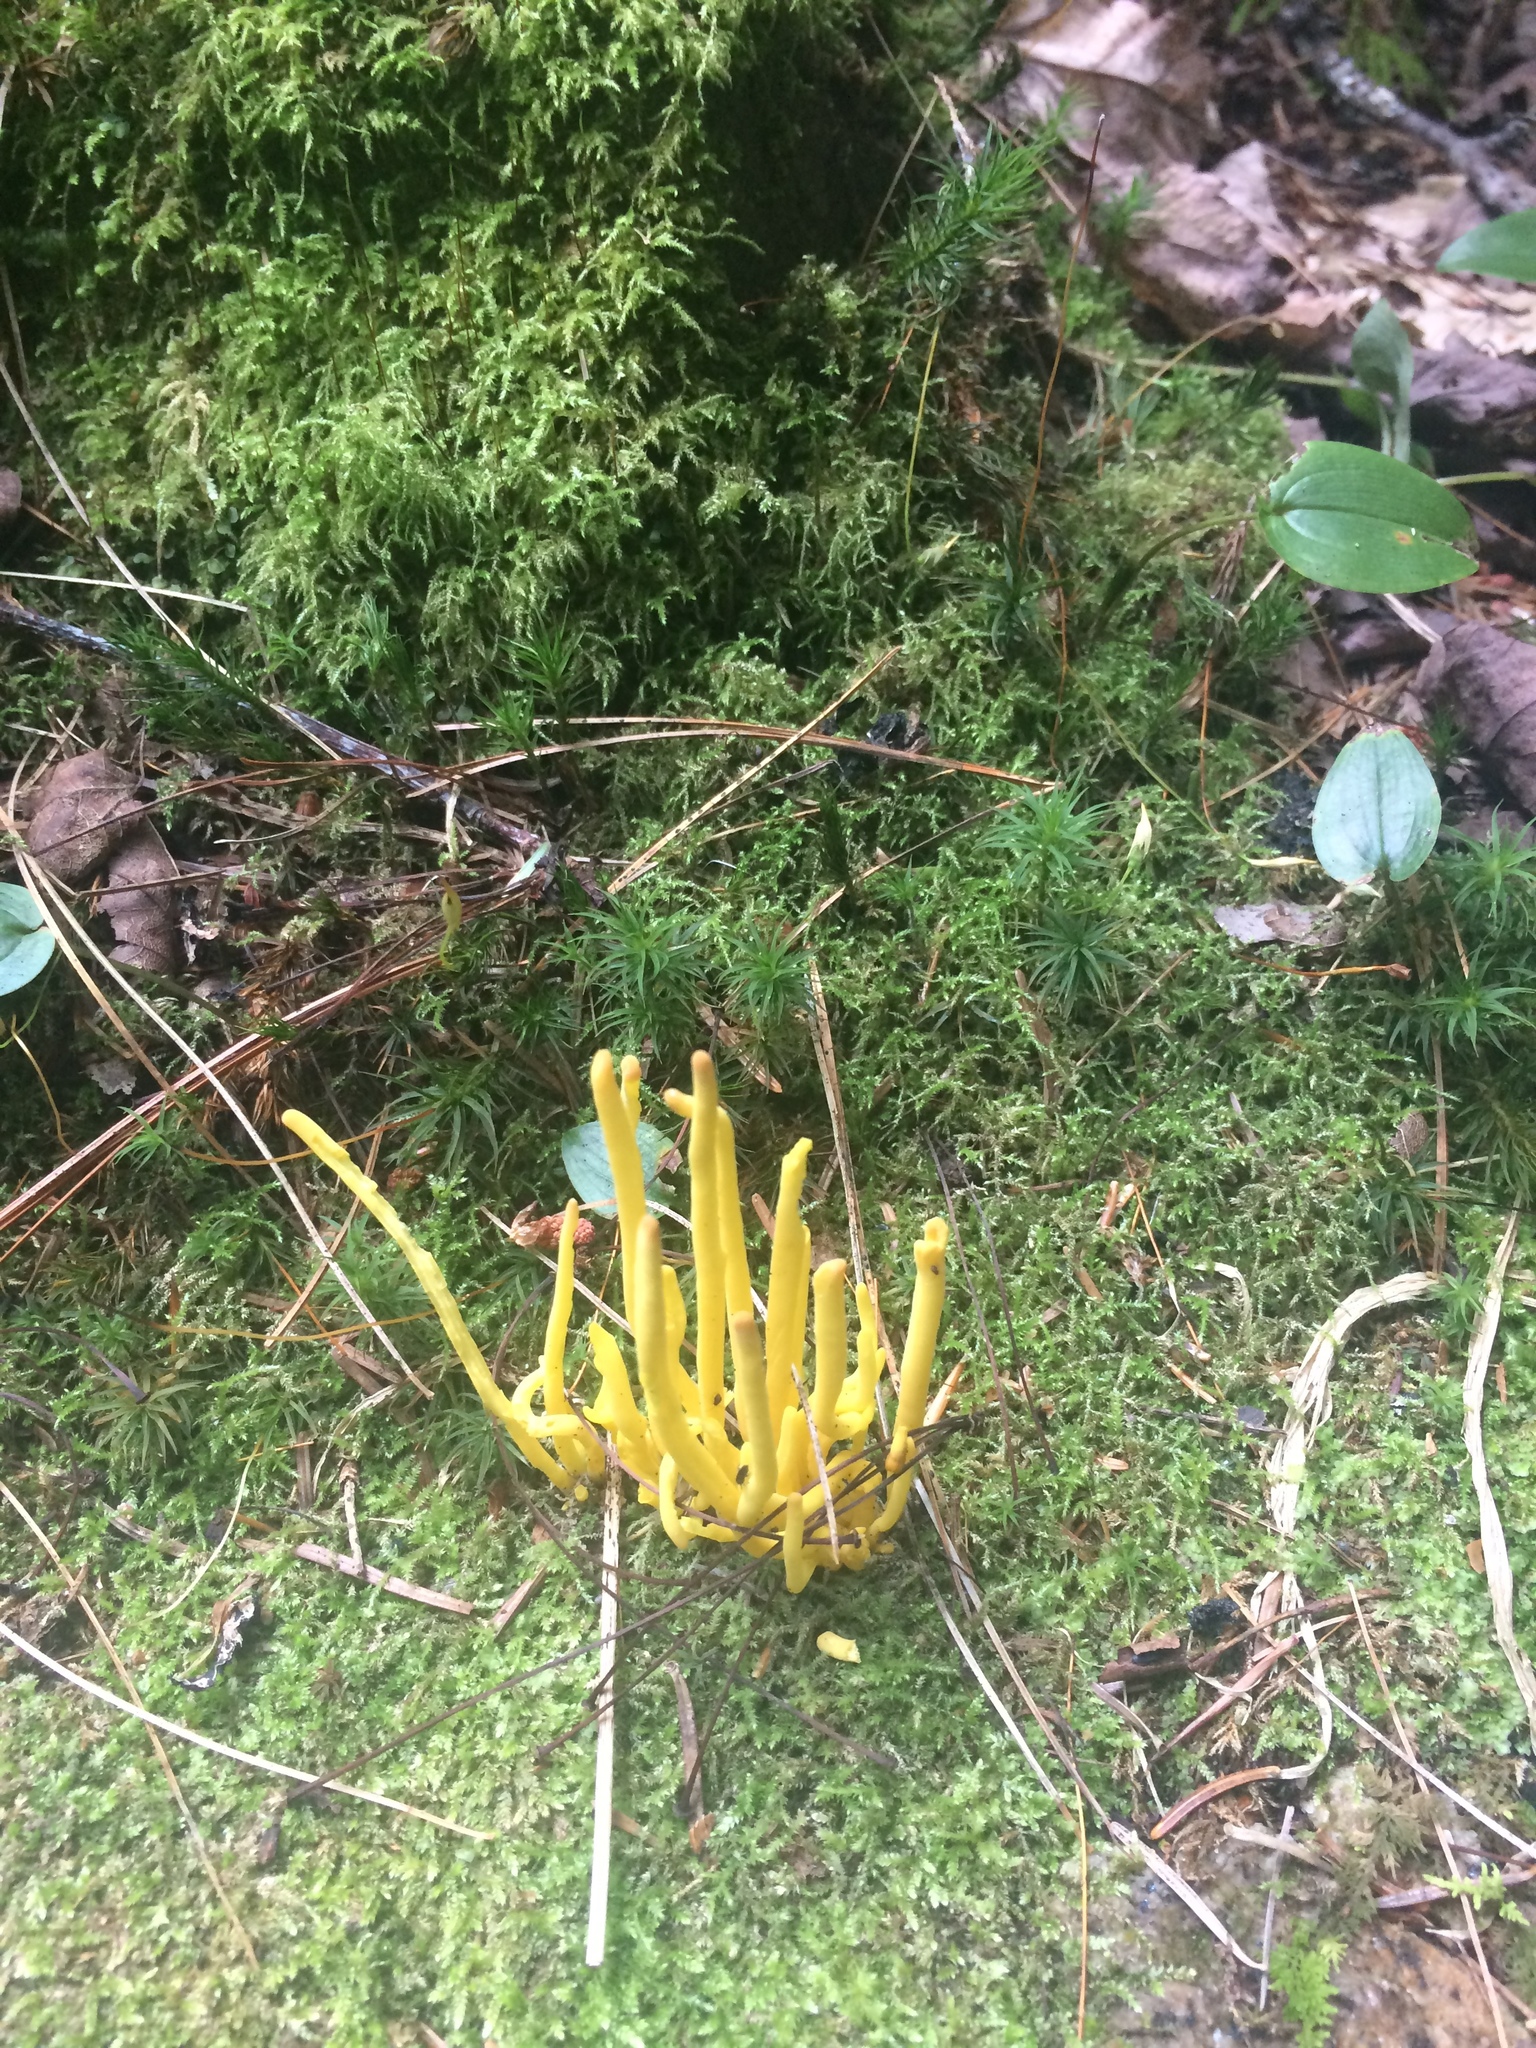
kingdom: Fungi
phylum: Basidiomycota
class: Agaricomycetes
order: Agaricales
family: Clavariaceae
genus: Clavulinopsis
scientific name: Clavulinopsis fusiformis
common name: Golden spindles
